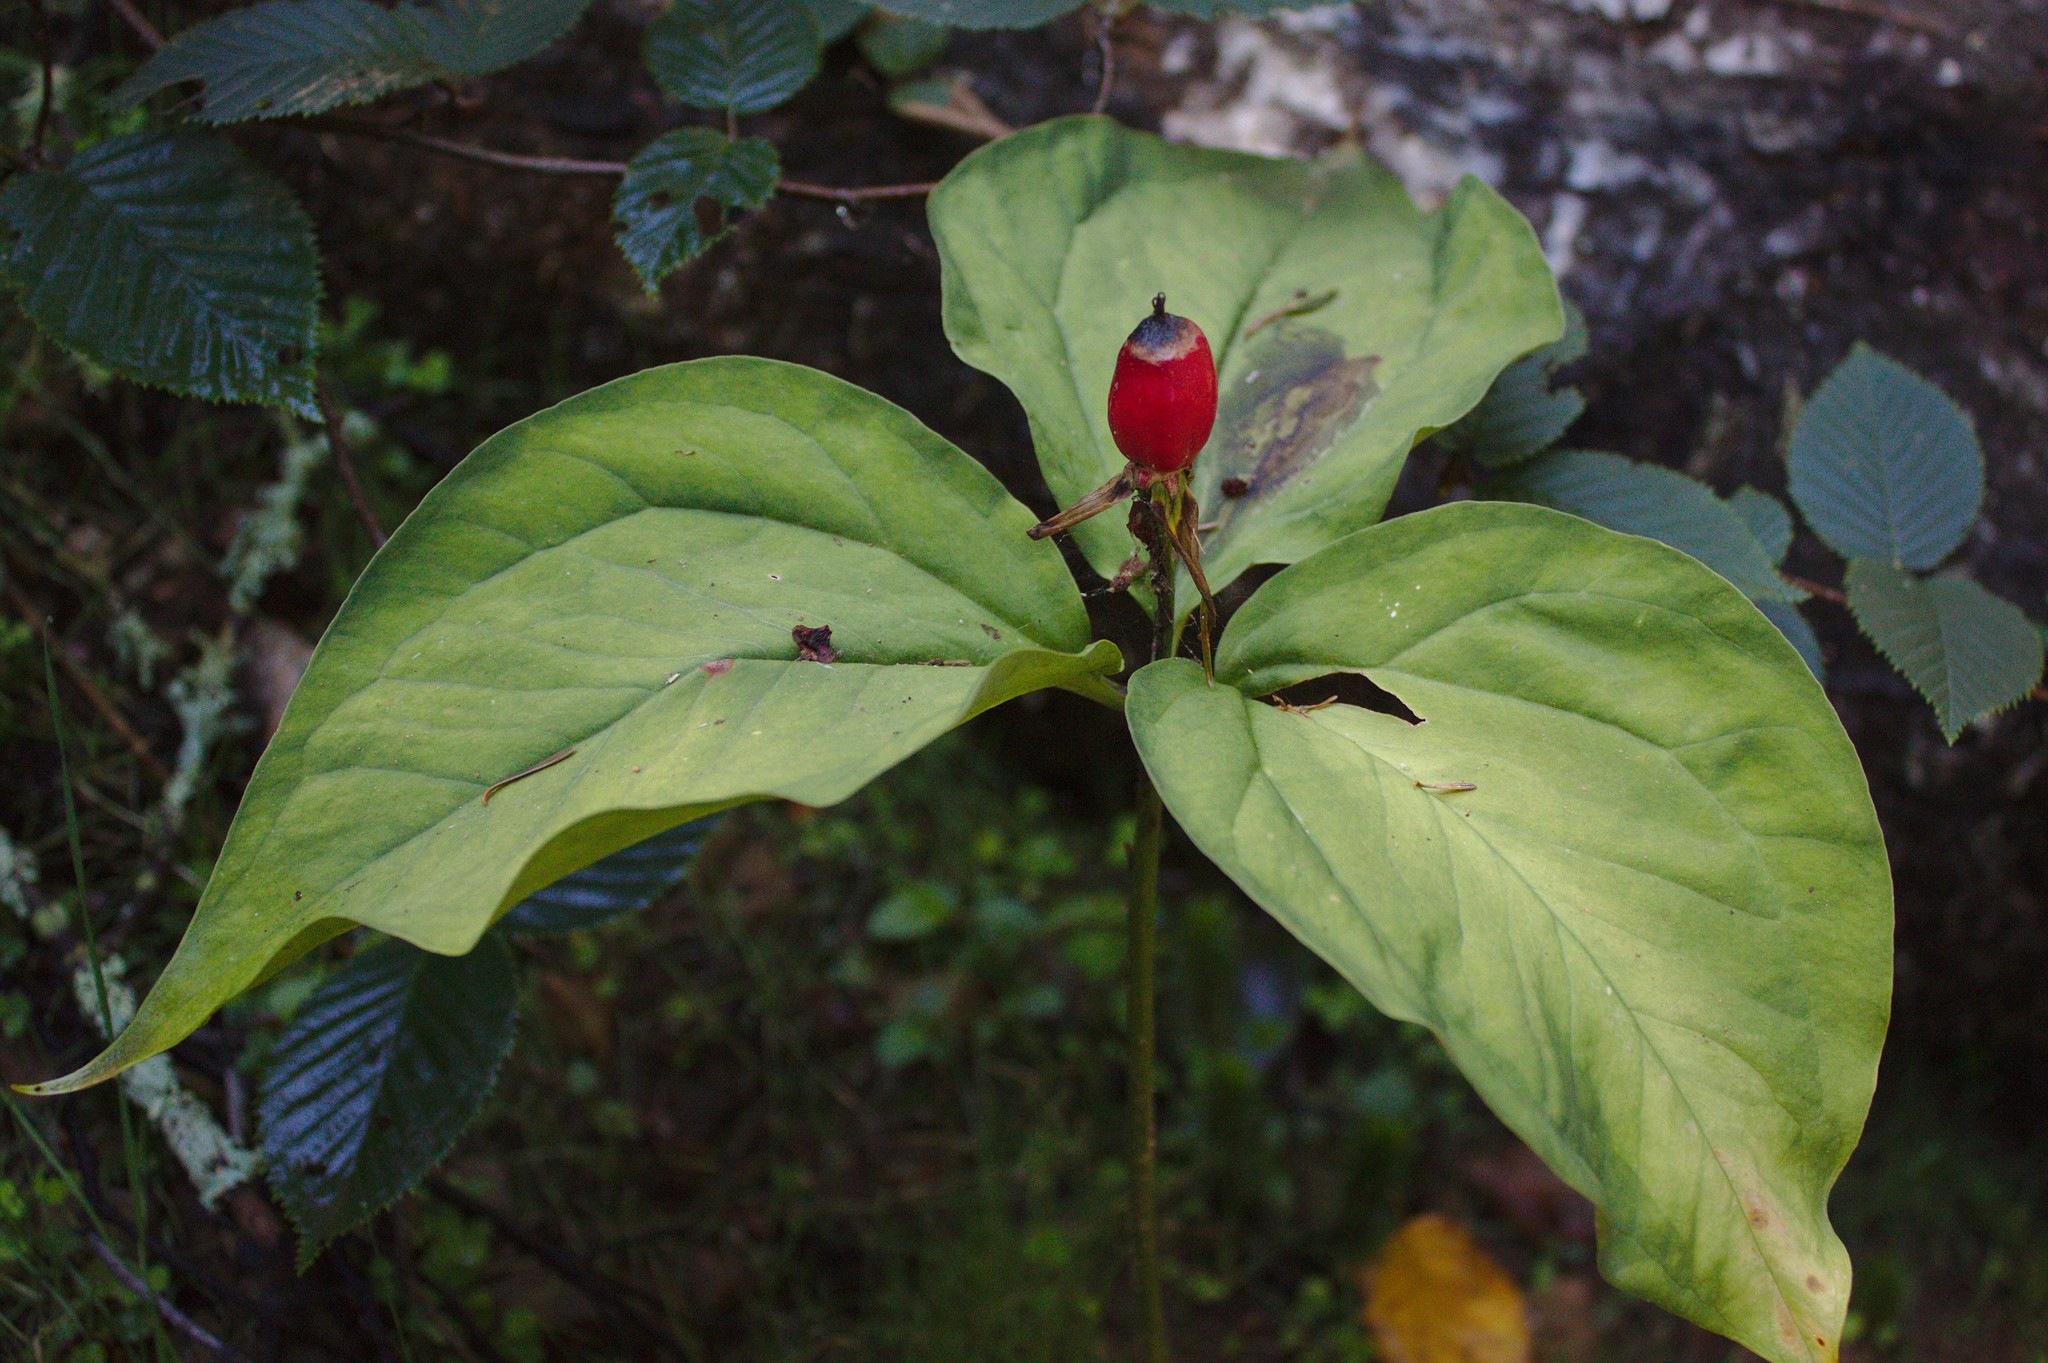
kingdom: Plantae
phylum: Tracheophyta
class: Liliopsida
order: Liliales
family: Melanthiaceae
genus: Trillium
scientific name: Trillium undulatum
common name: Paint trillium
